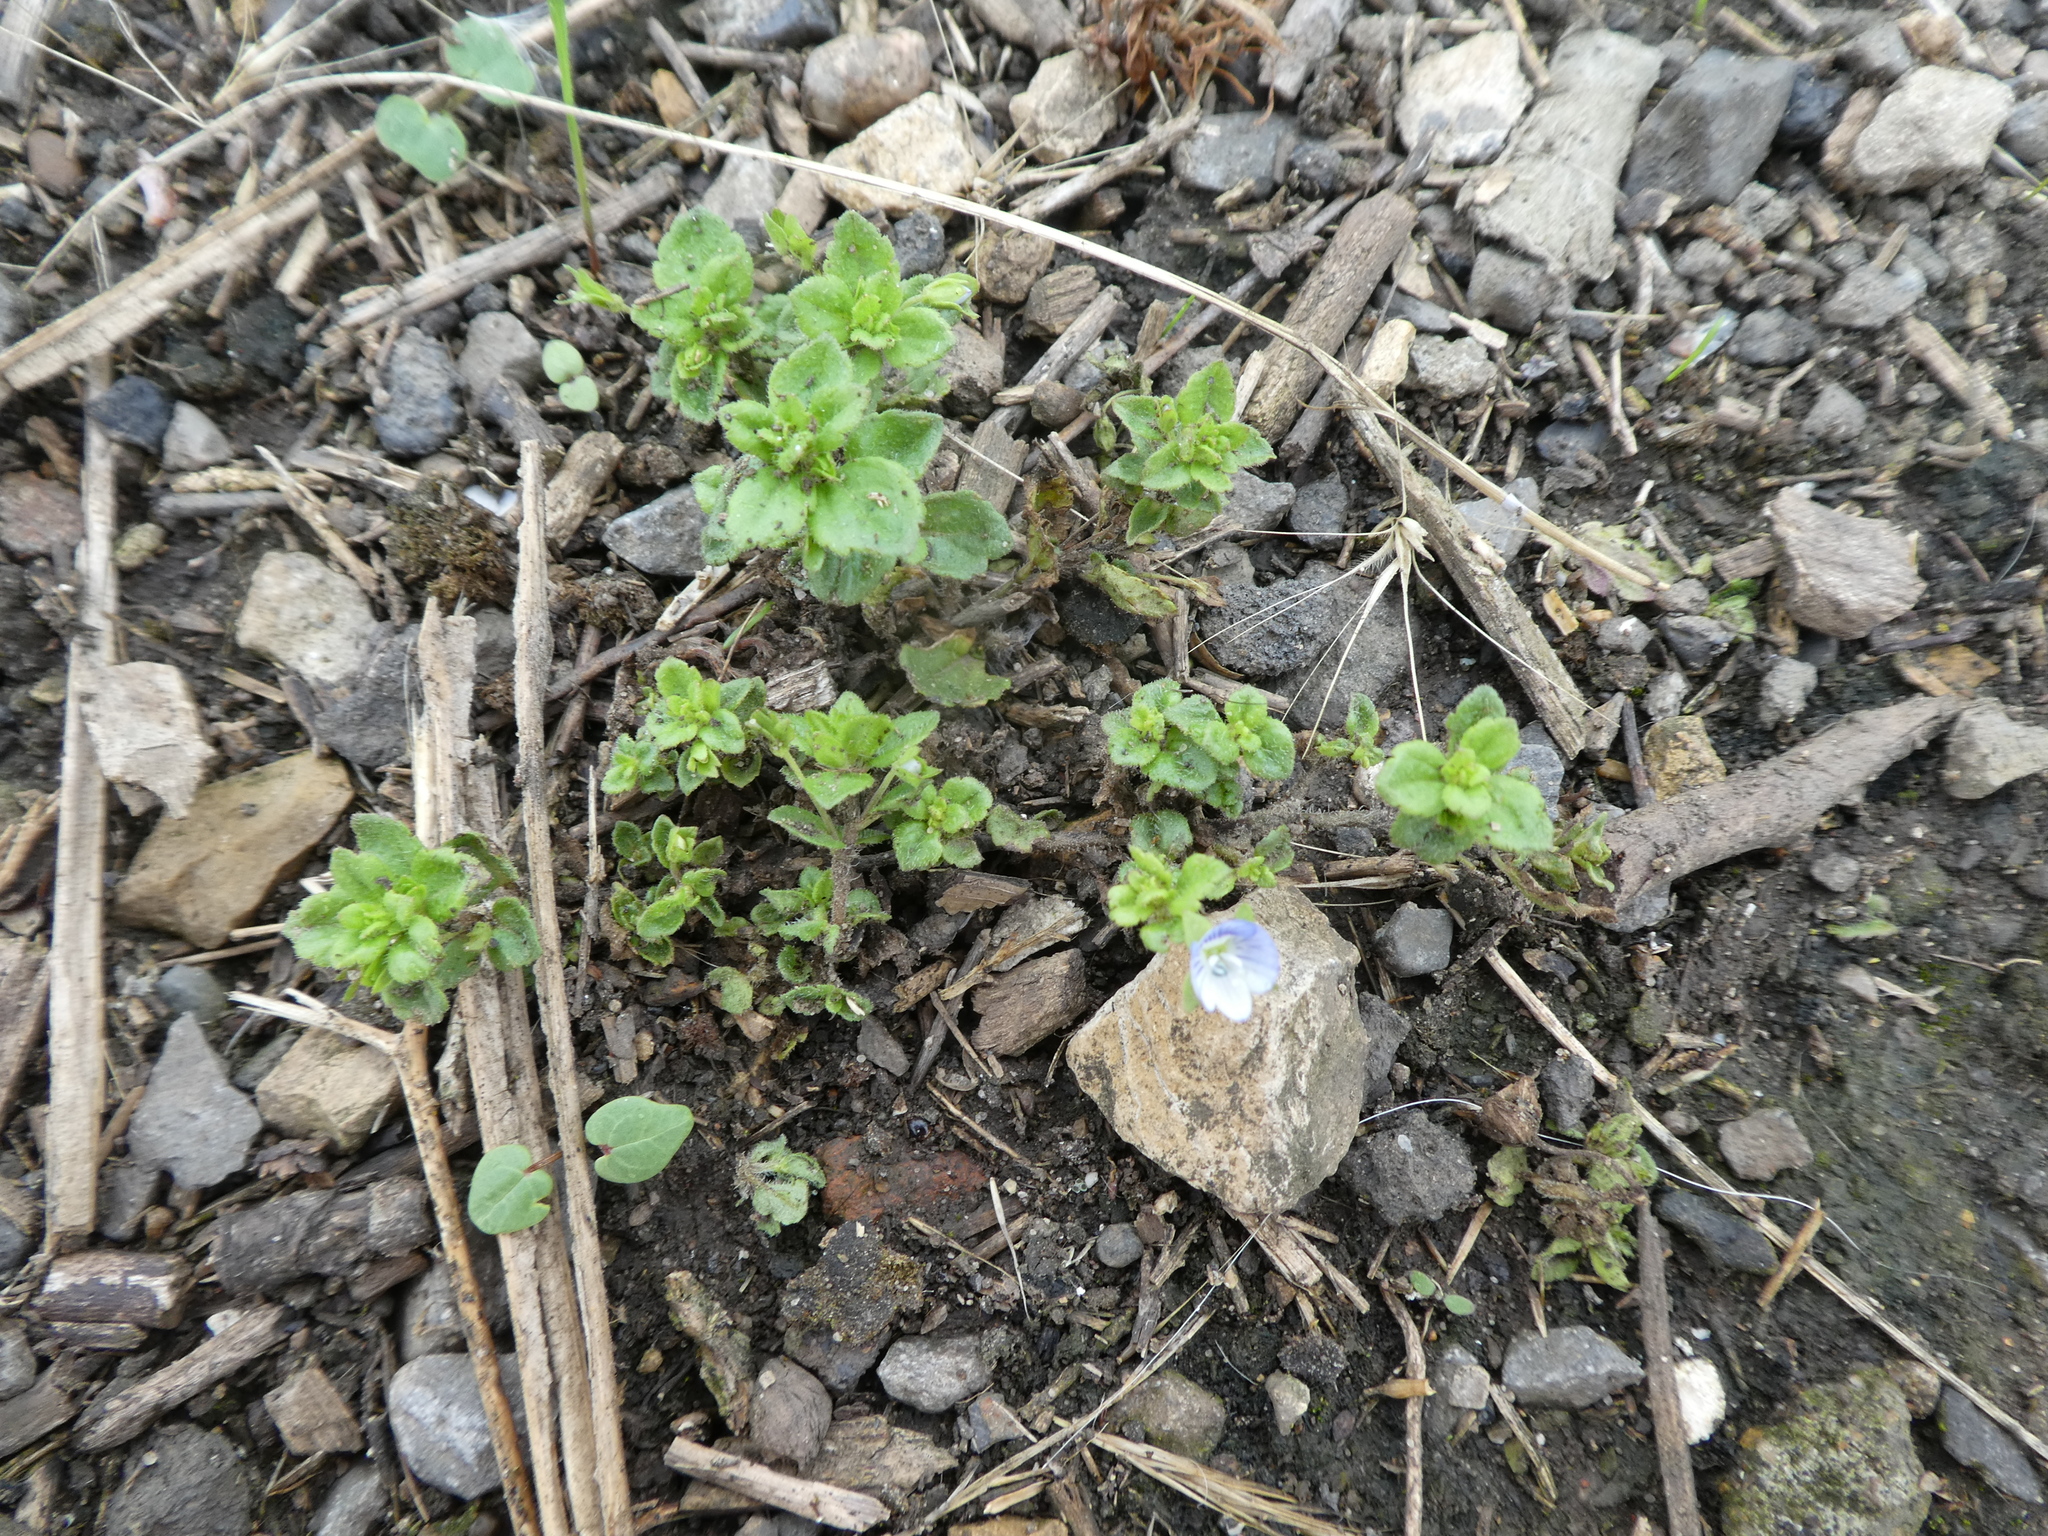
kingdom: Plantae
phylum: Tracheophyta
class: Magnoliopsida
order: Lamiales
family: Plantaginaceae
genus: Veronica
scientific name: Veronica persica
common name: Common field-speedwell
